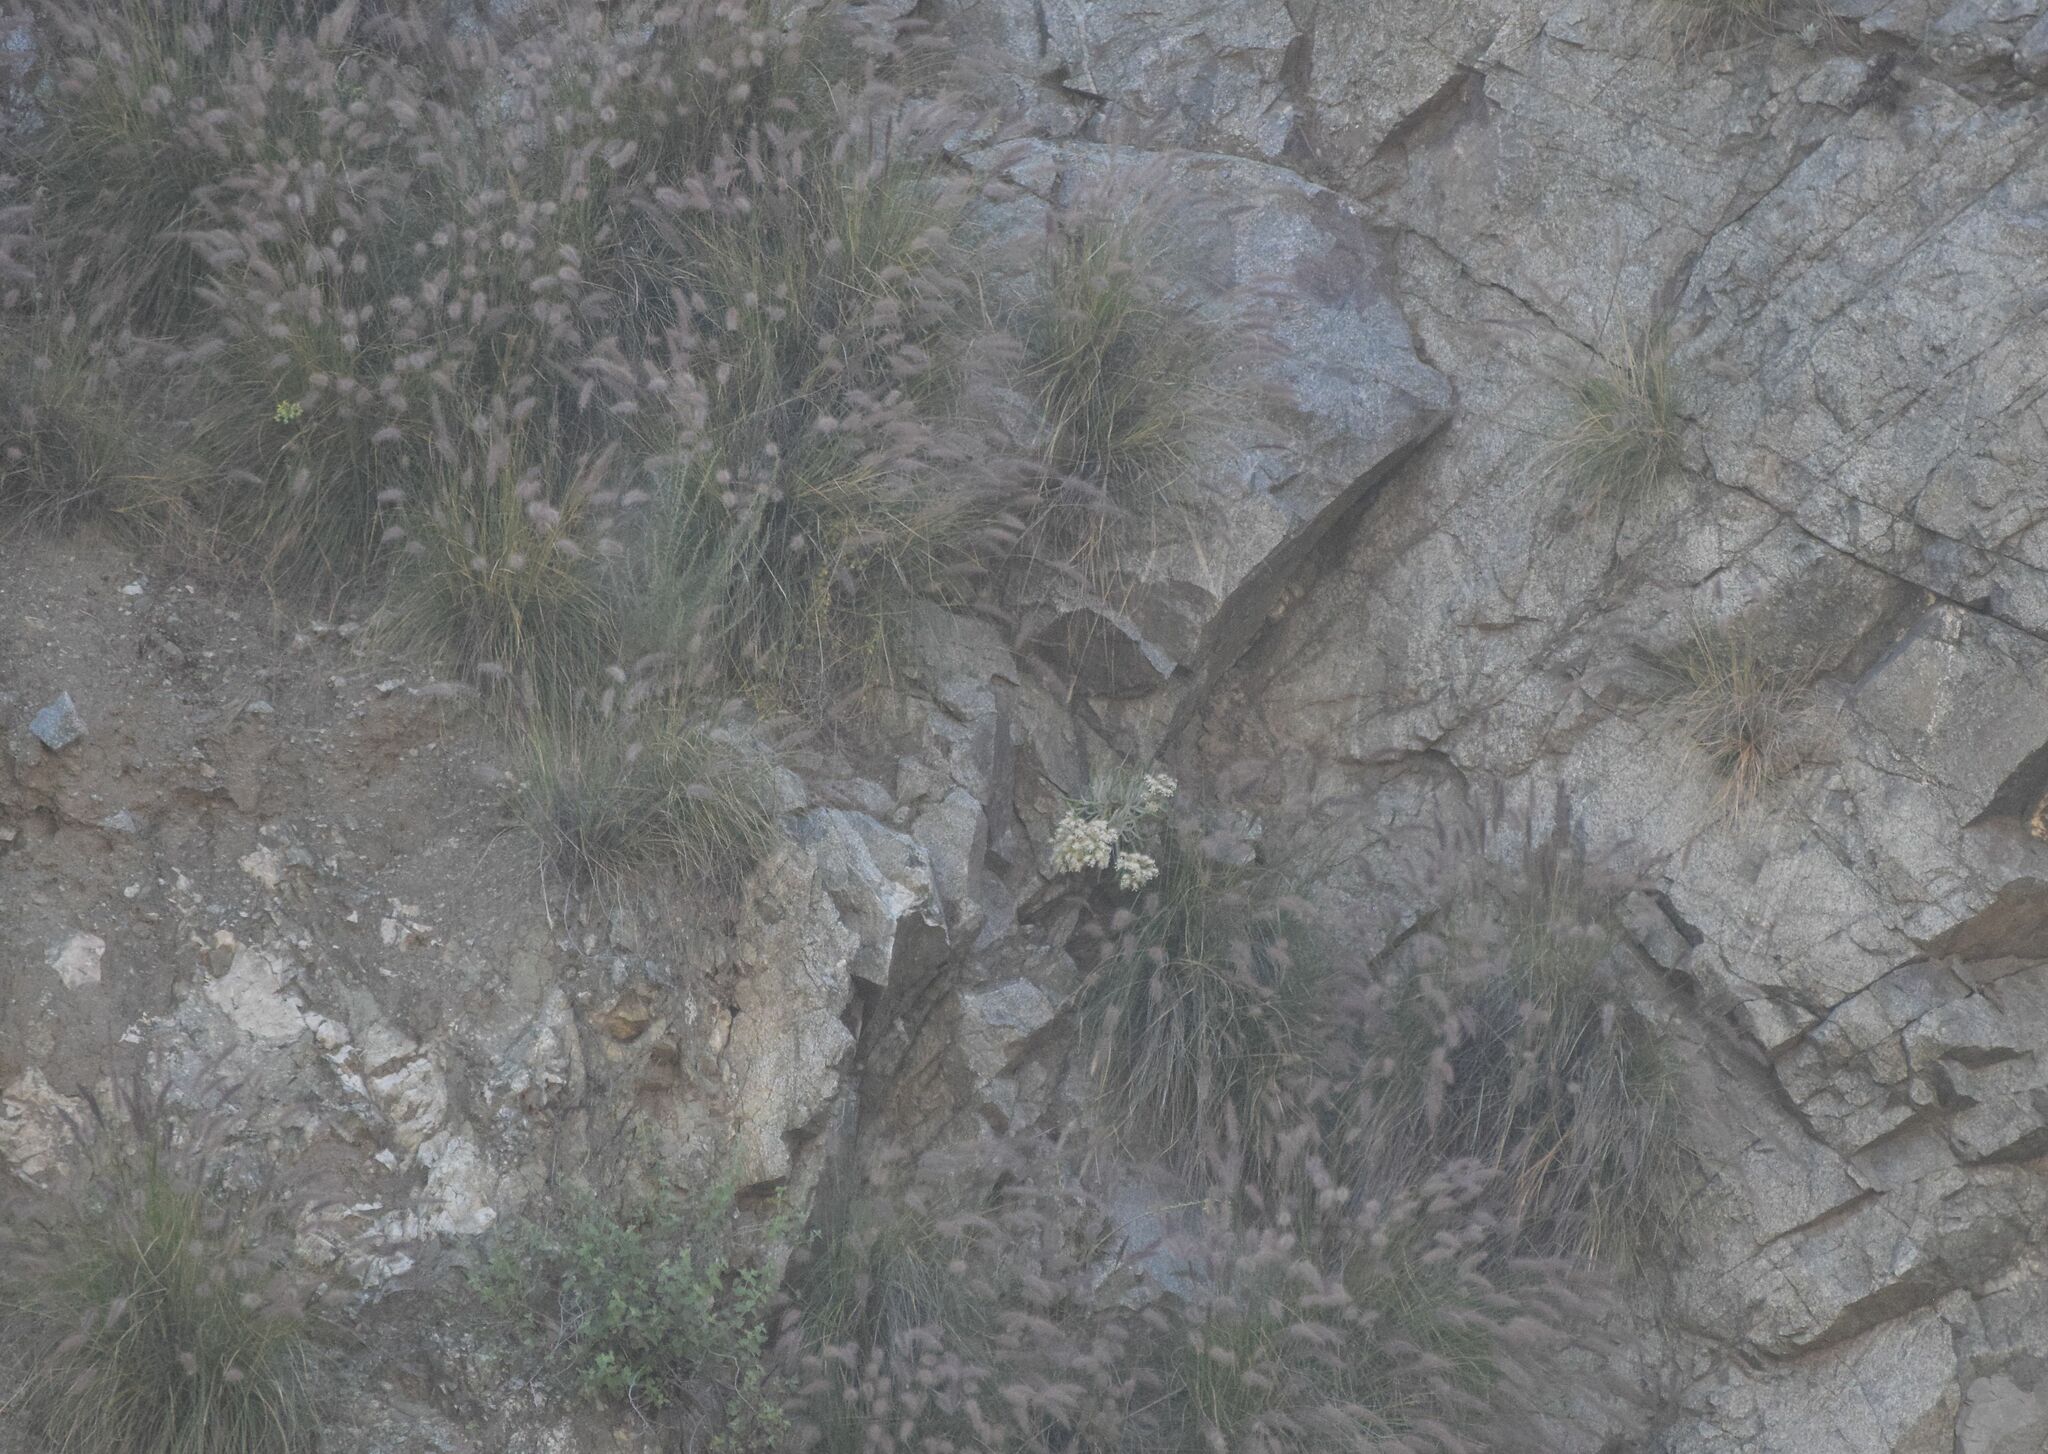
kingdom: Plantae
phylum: Tracheophyta
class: Magnoliopsida
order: Saxifragales
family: Crassulaceae
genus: Dudleya
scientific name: Dudleya densiflora
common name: San gabriel mountains dudleya
